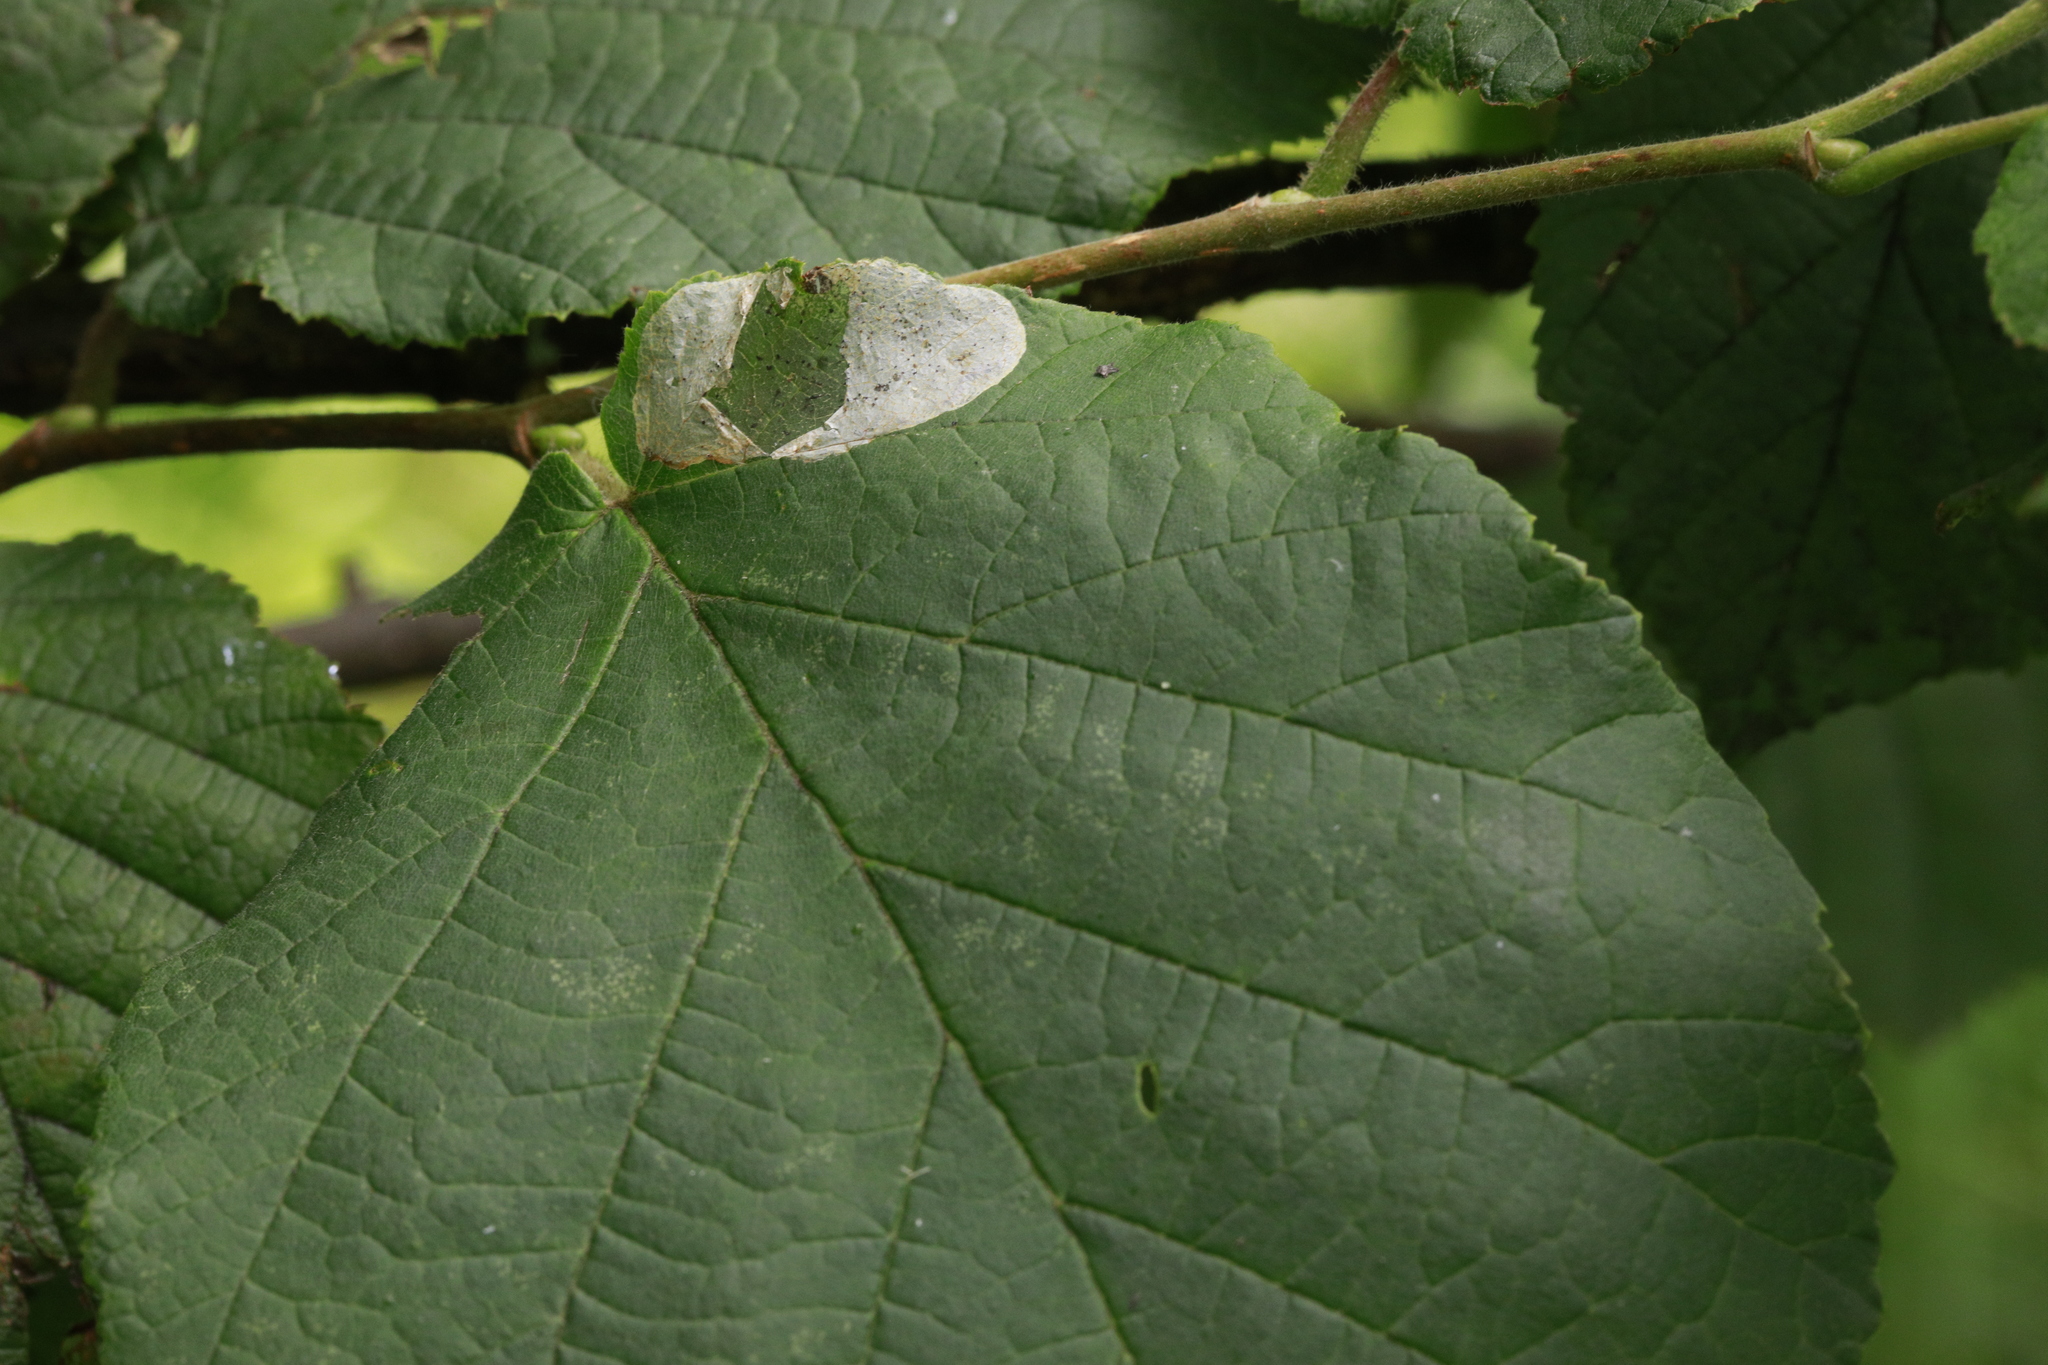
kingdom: Plantae
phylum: Tracheophyta
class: Magnoliopsida
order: Fagales
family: Betulaceae
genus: Corylus
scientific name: Corylus avellana
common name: European hazel
